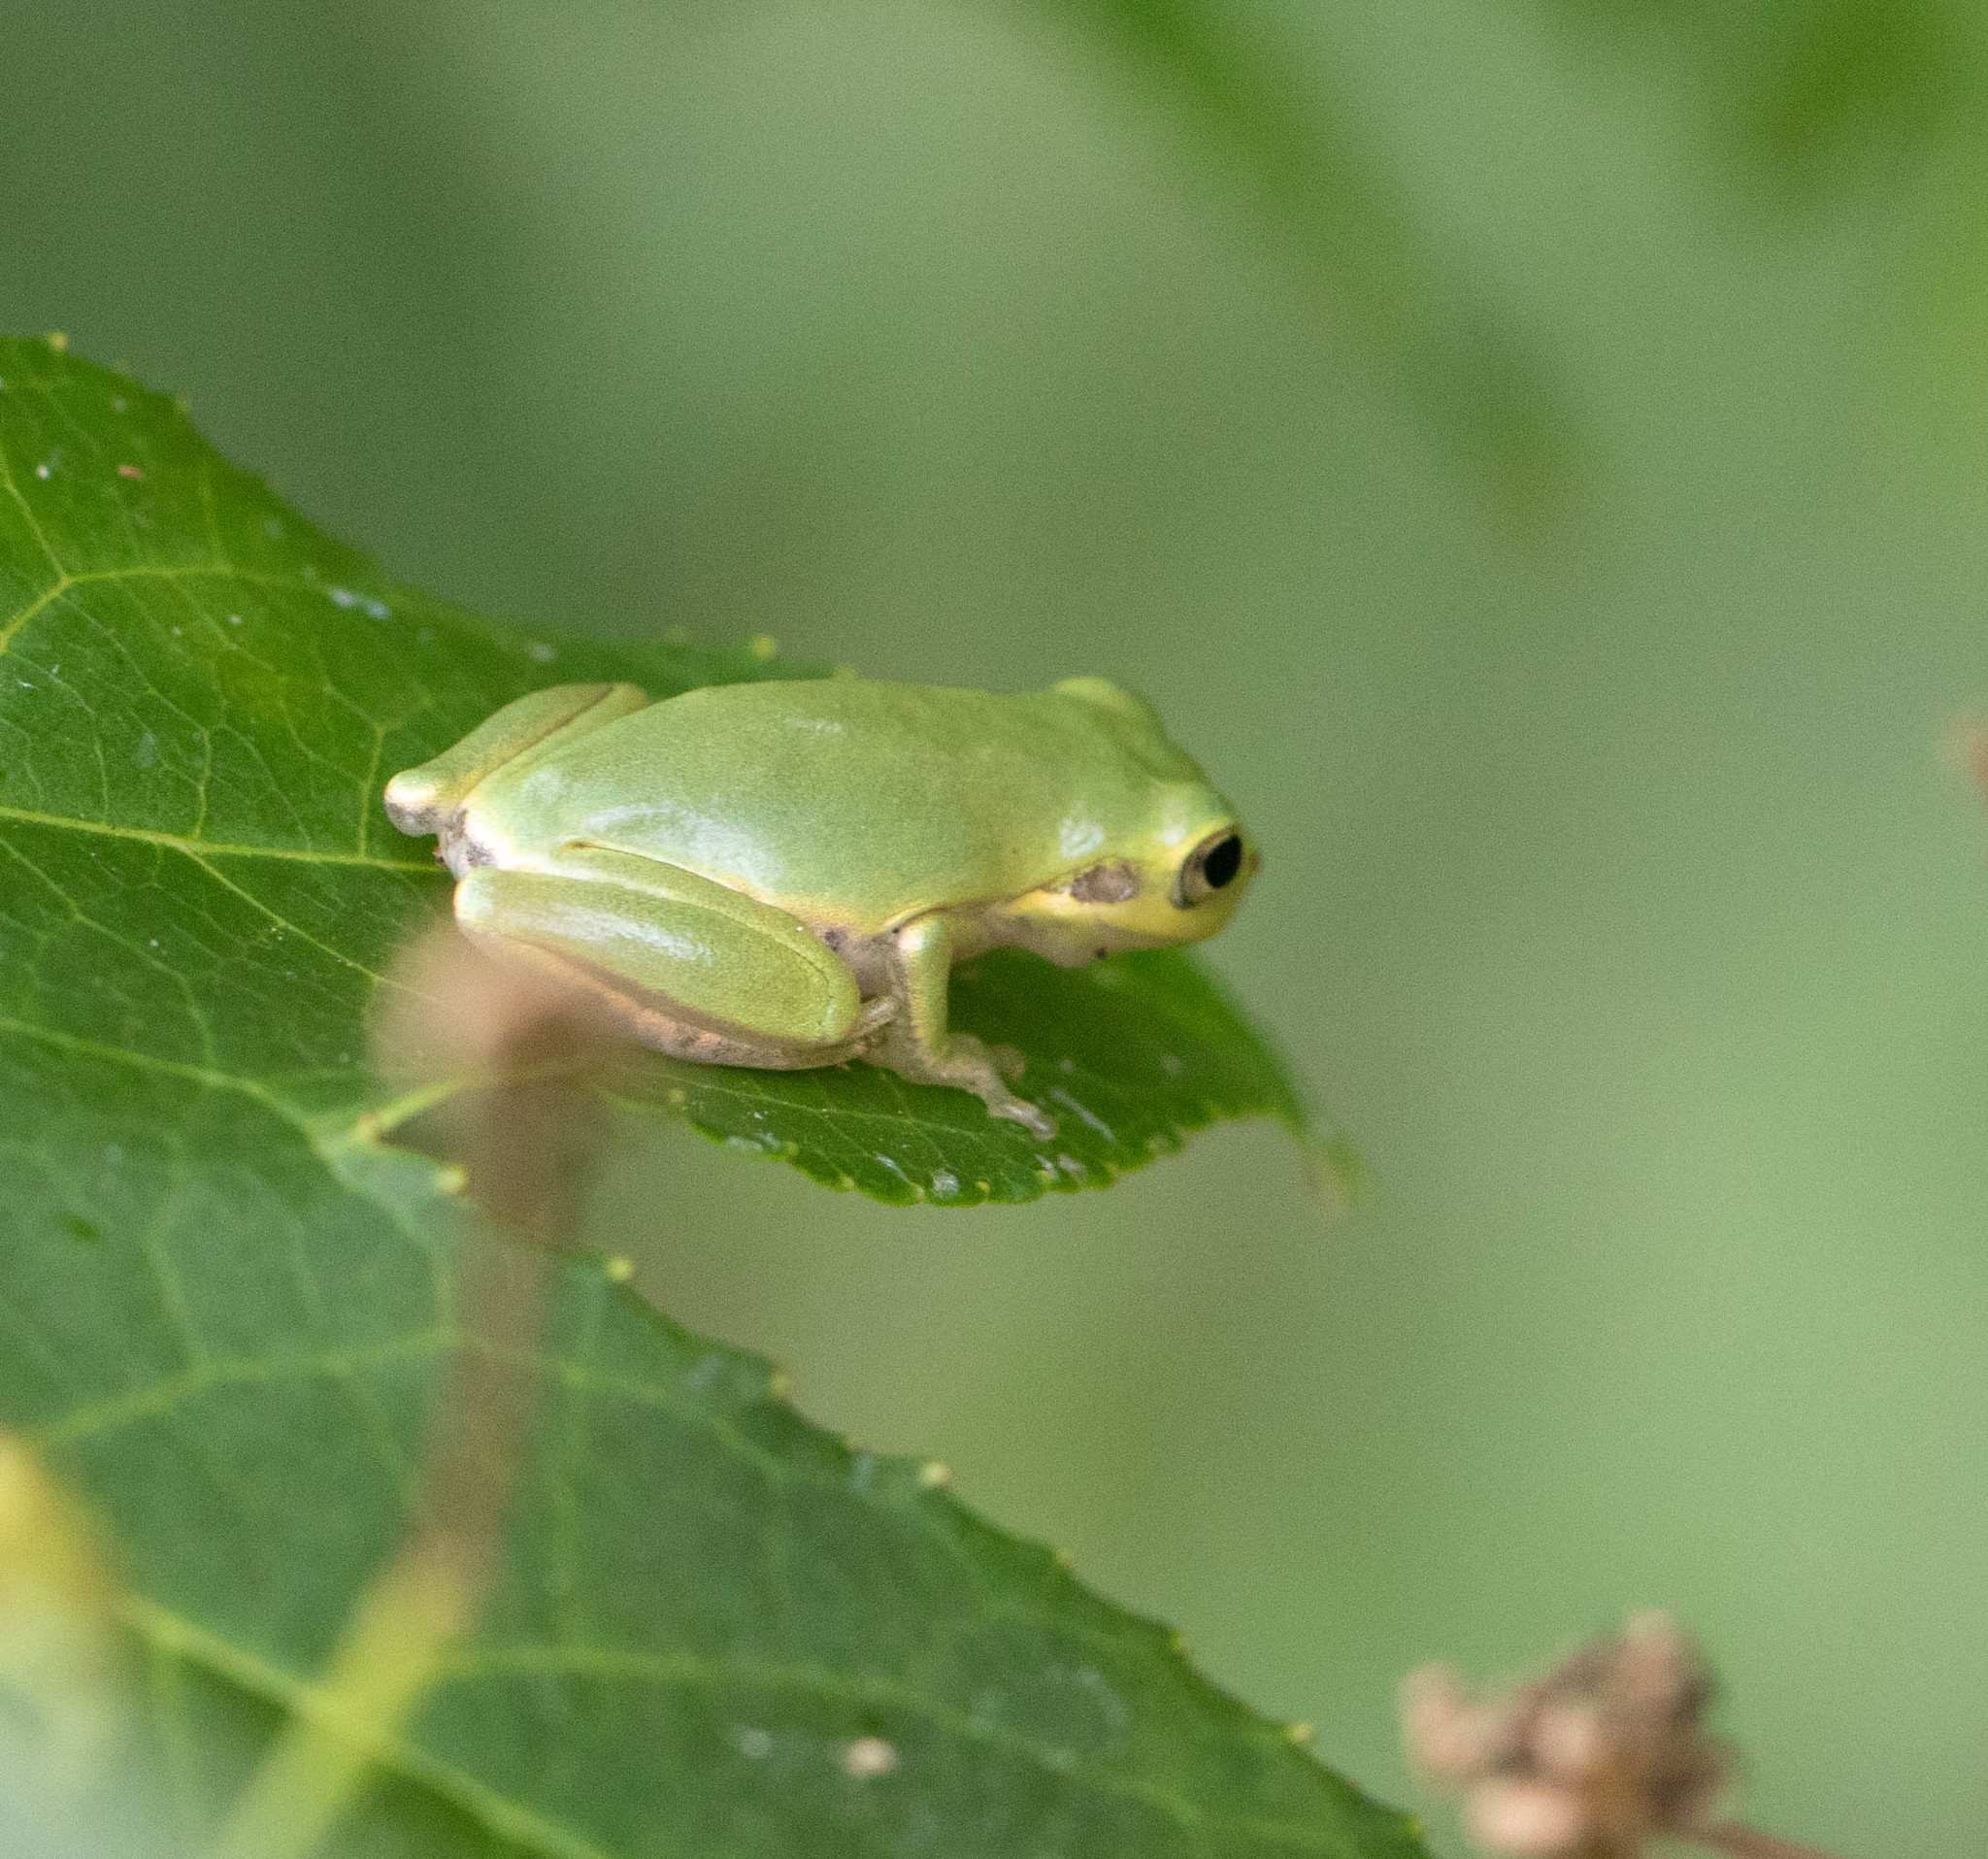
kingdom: Animalia
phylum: Chordata
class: Amphibia
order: Anura
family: Hylidae
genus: Dryophytes
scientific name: Dryophytes squirellus
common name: Squirrel treefrog
